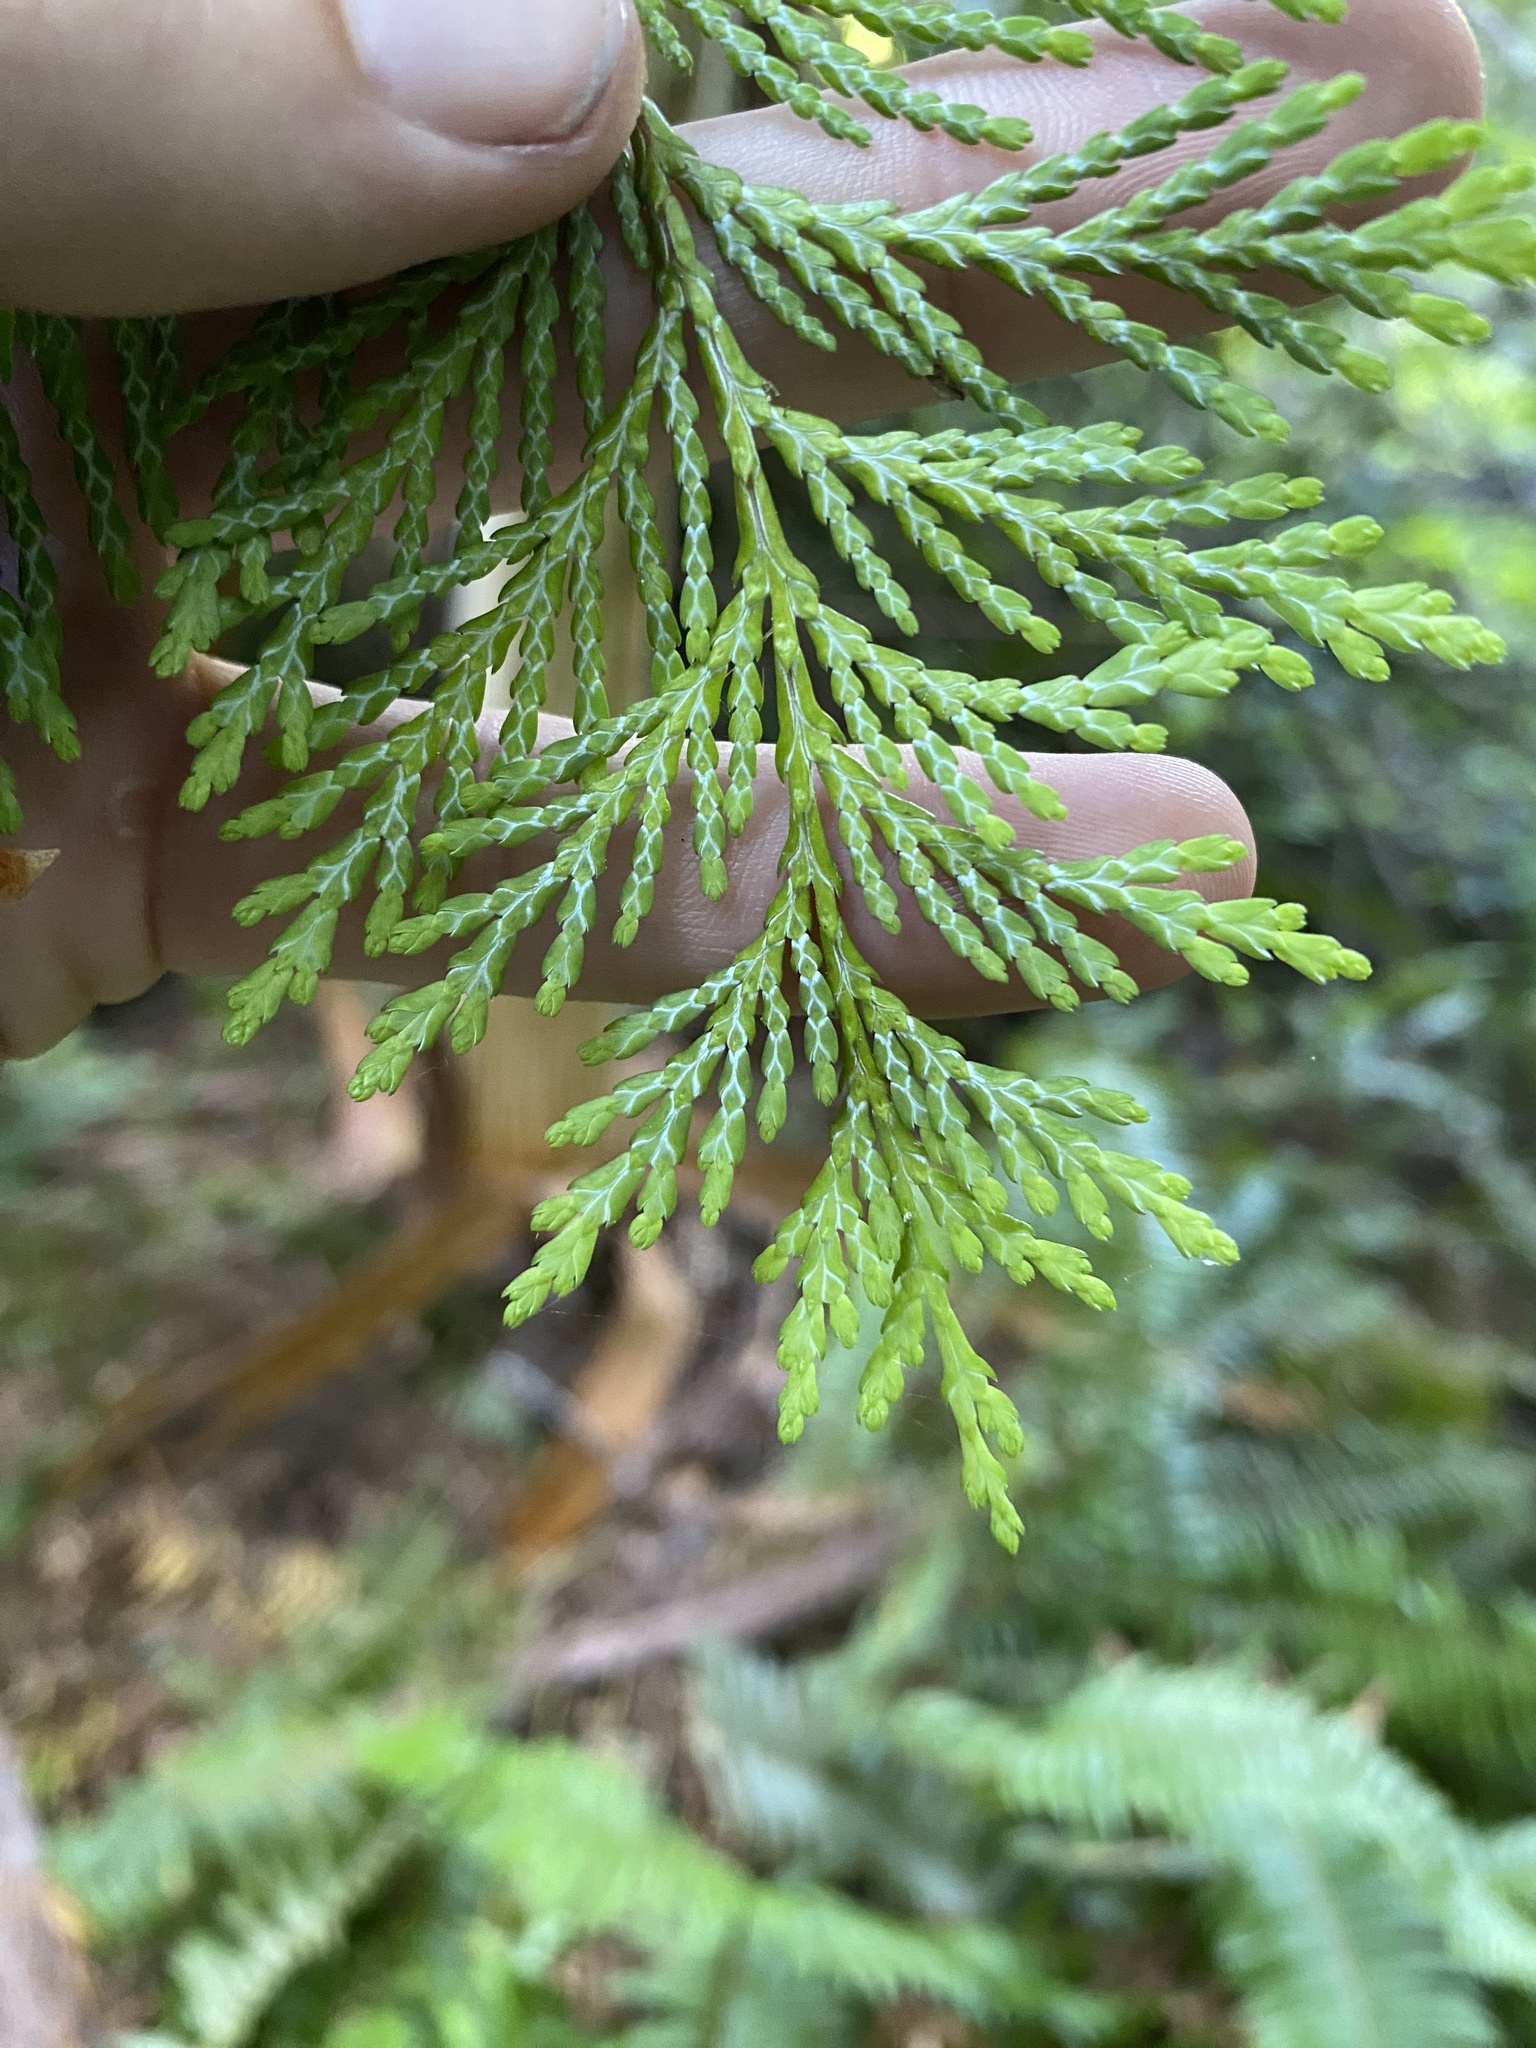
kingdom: Plantae
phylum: Tracheophyta
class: Pinopsida
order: Pinales
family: Cupressaceae
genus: Chamaecyparis
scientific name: Chamaecyparis lawsoniana
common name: Lawson's cypress
